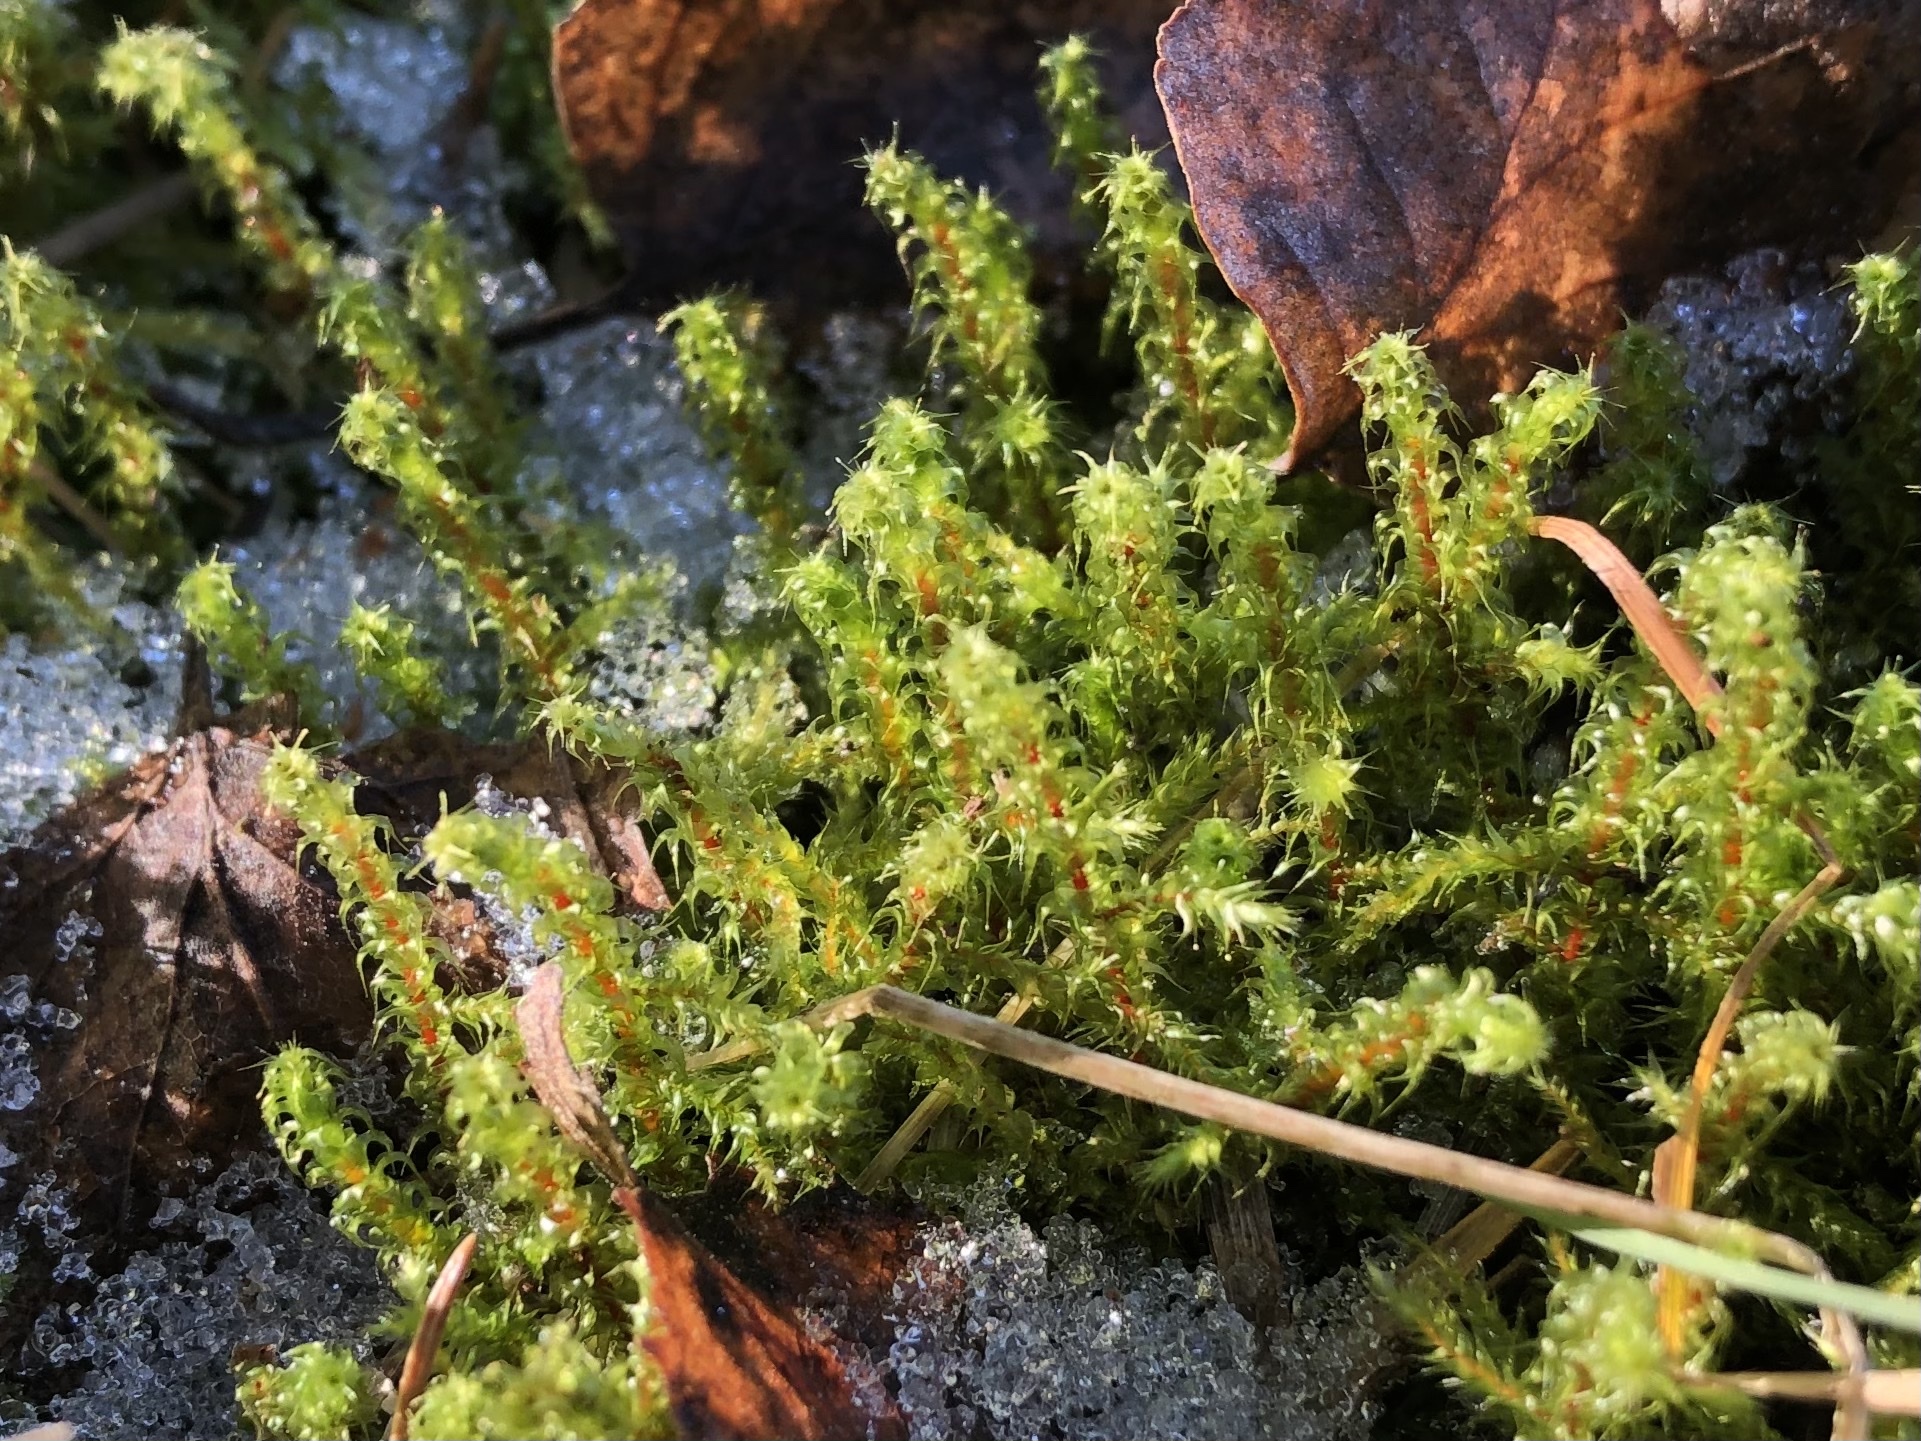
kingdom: Plantae
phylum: Bryophyta
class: Bryopsida
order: Hypnales
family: Hylocomiaceae
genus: Rhytidiadelphus
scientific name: Rhytidiadelphus squarrosus
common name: Springy turf-moss
